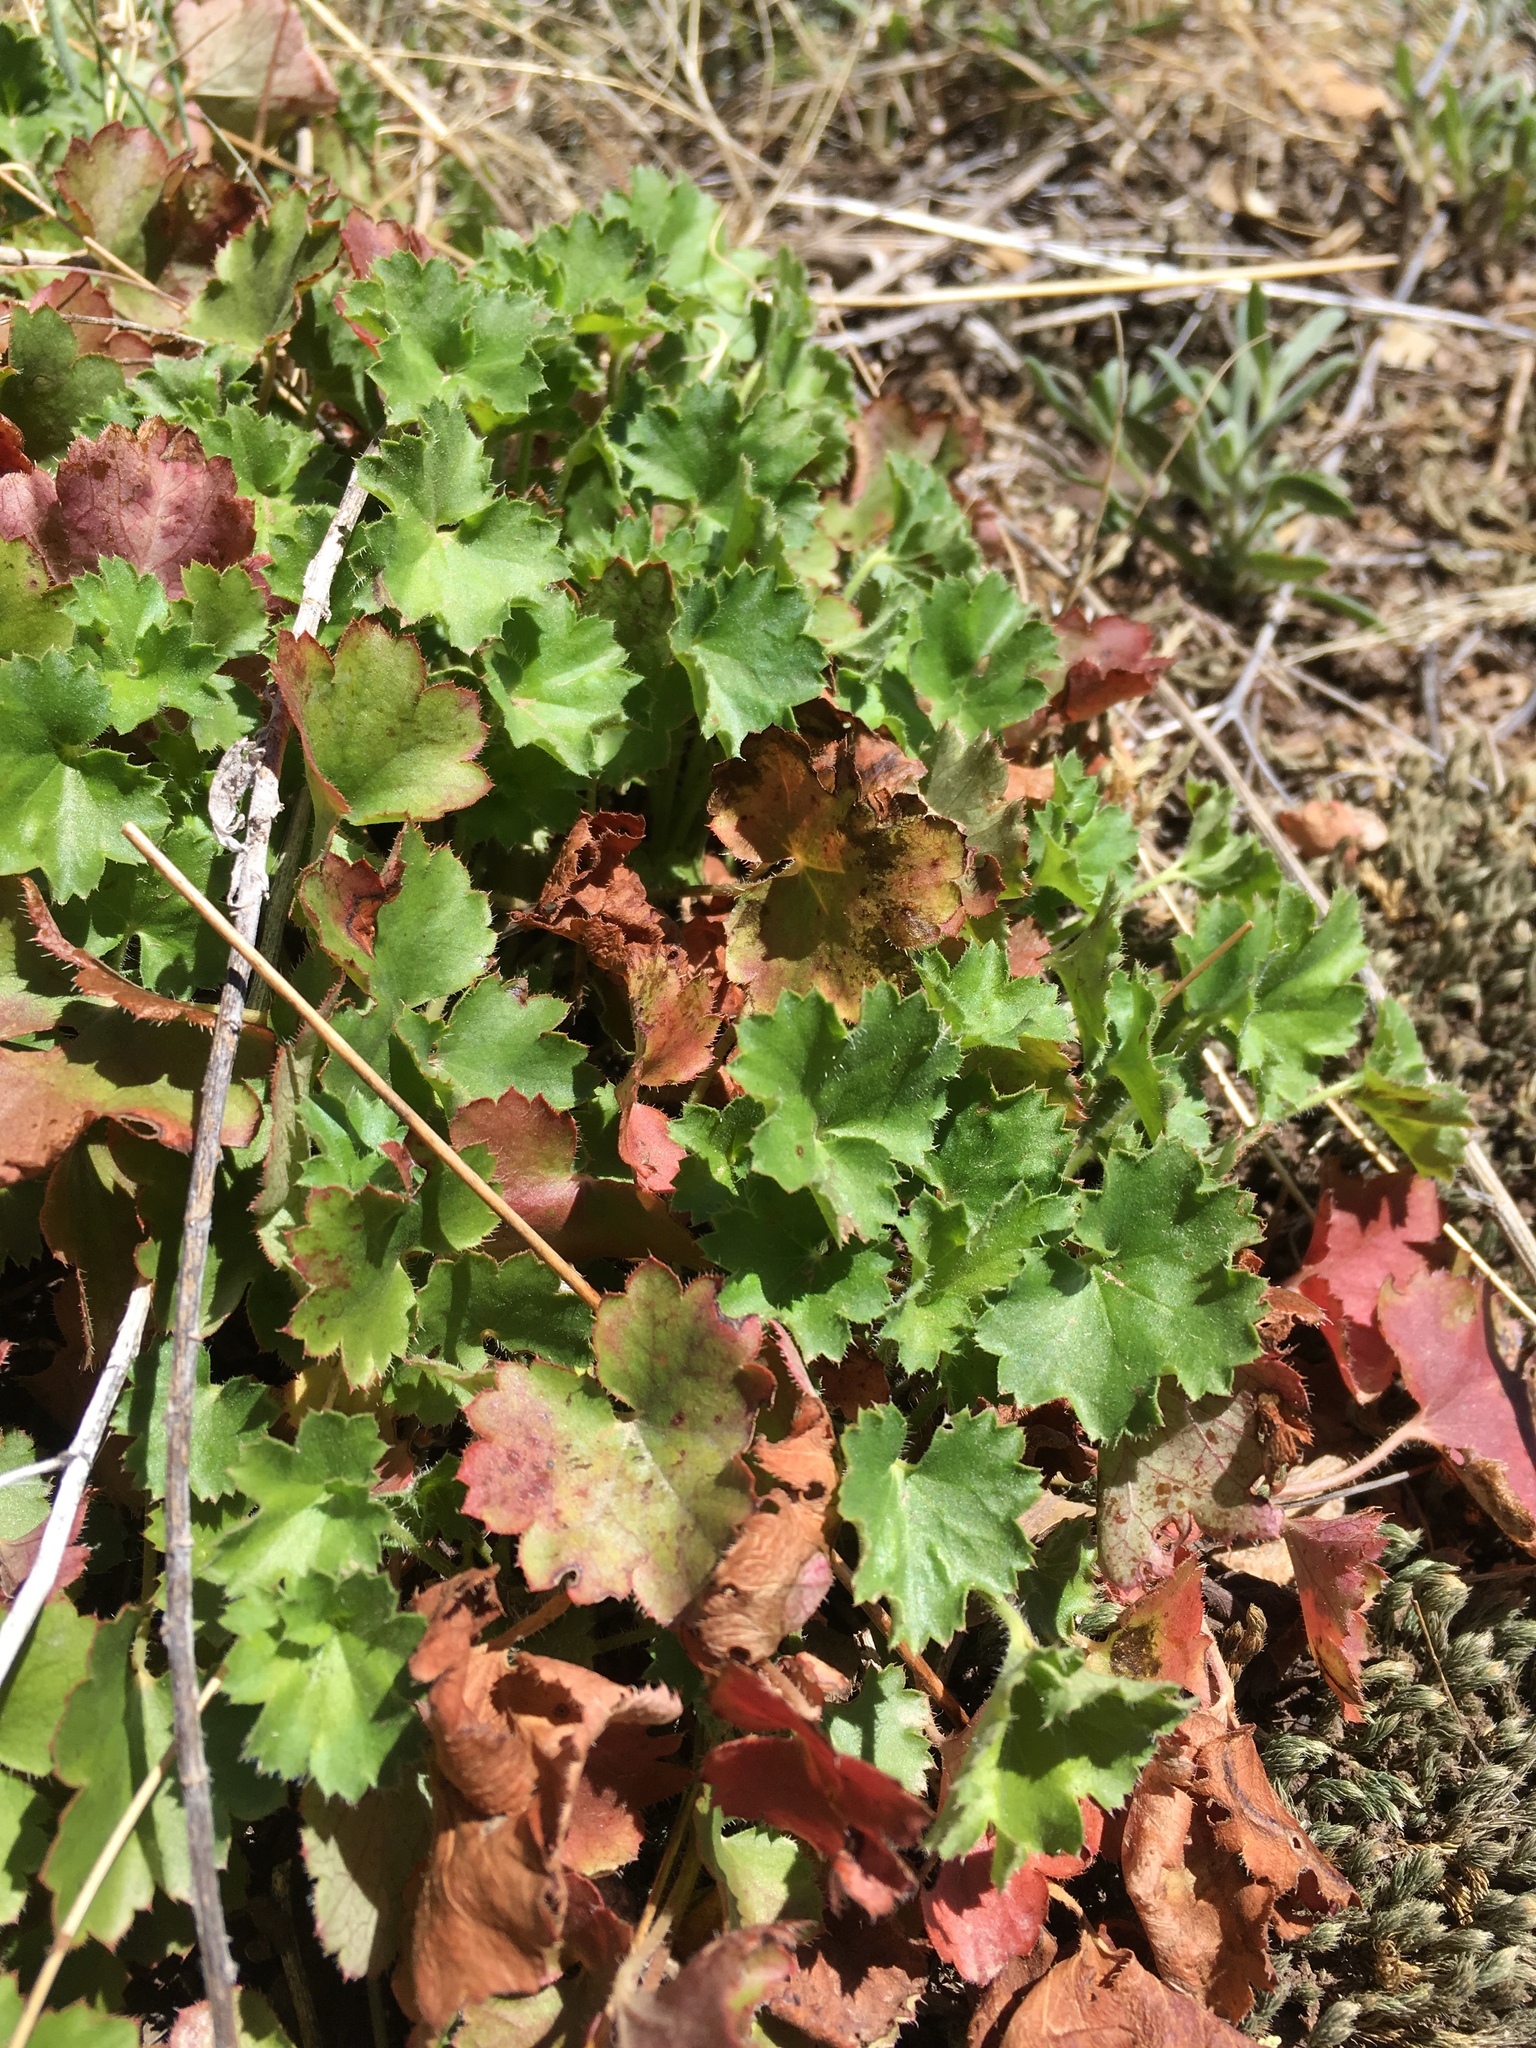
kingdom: Plantae
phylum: Tracheophyta
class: Magnoliopsida
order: Saxifragales
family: Saxifragaceae
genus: Heuchera
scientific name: Heuchera rubescens
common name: Jack-o'the-rocks
